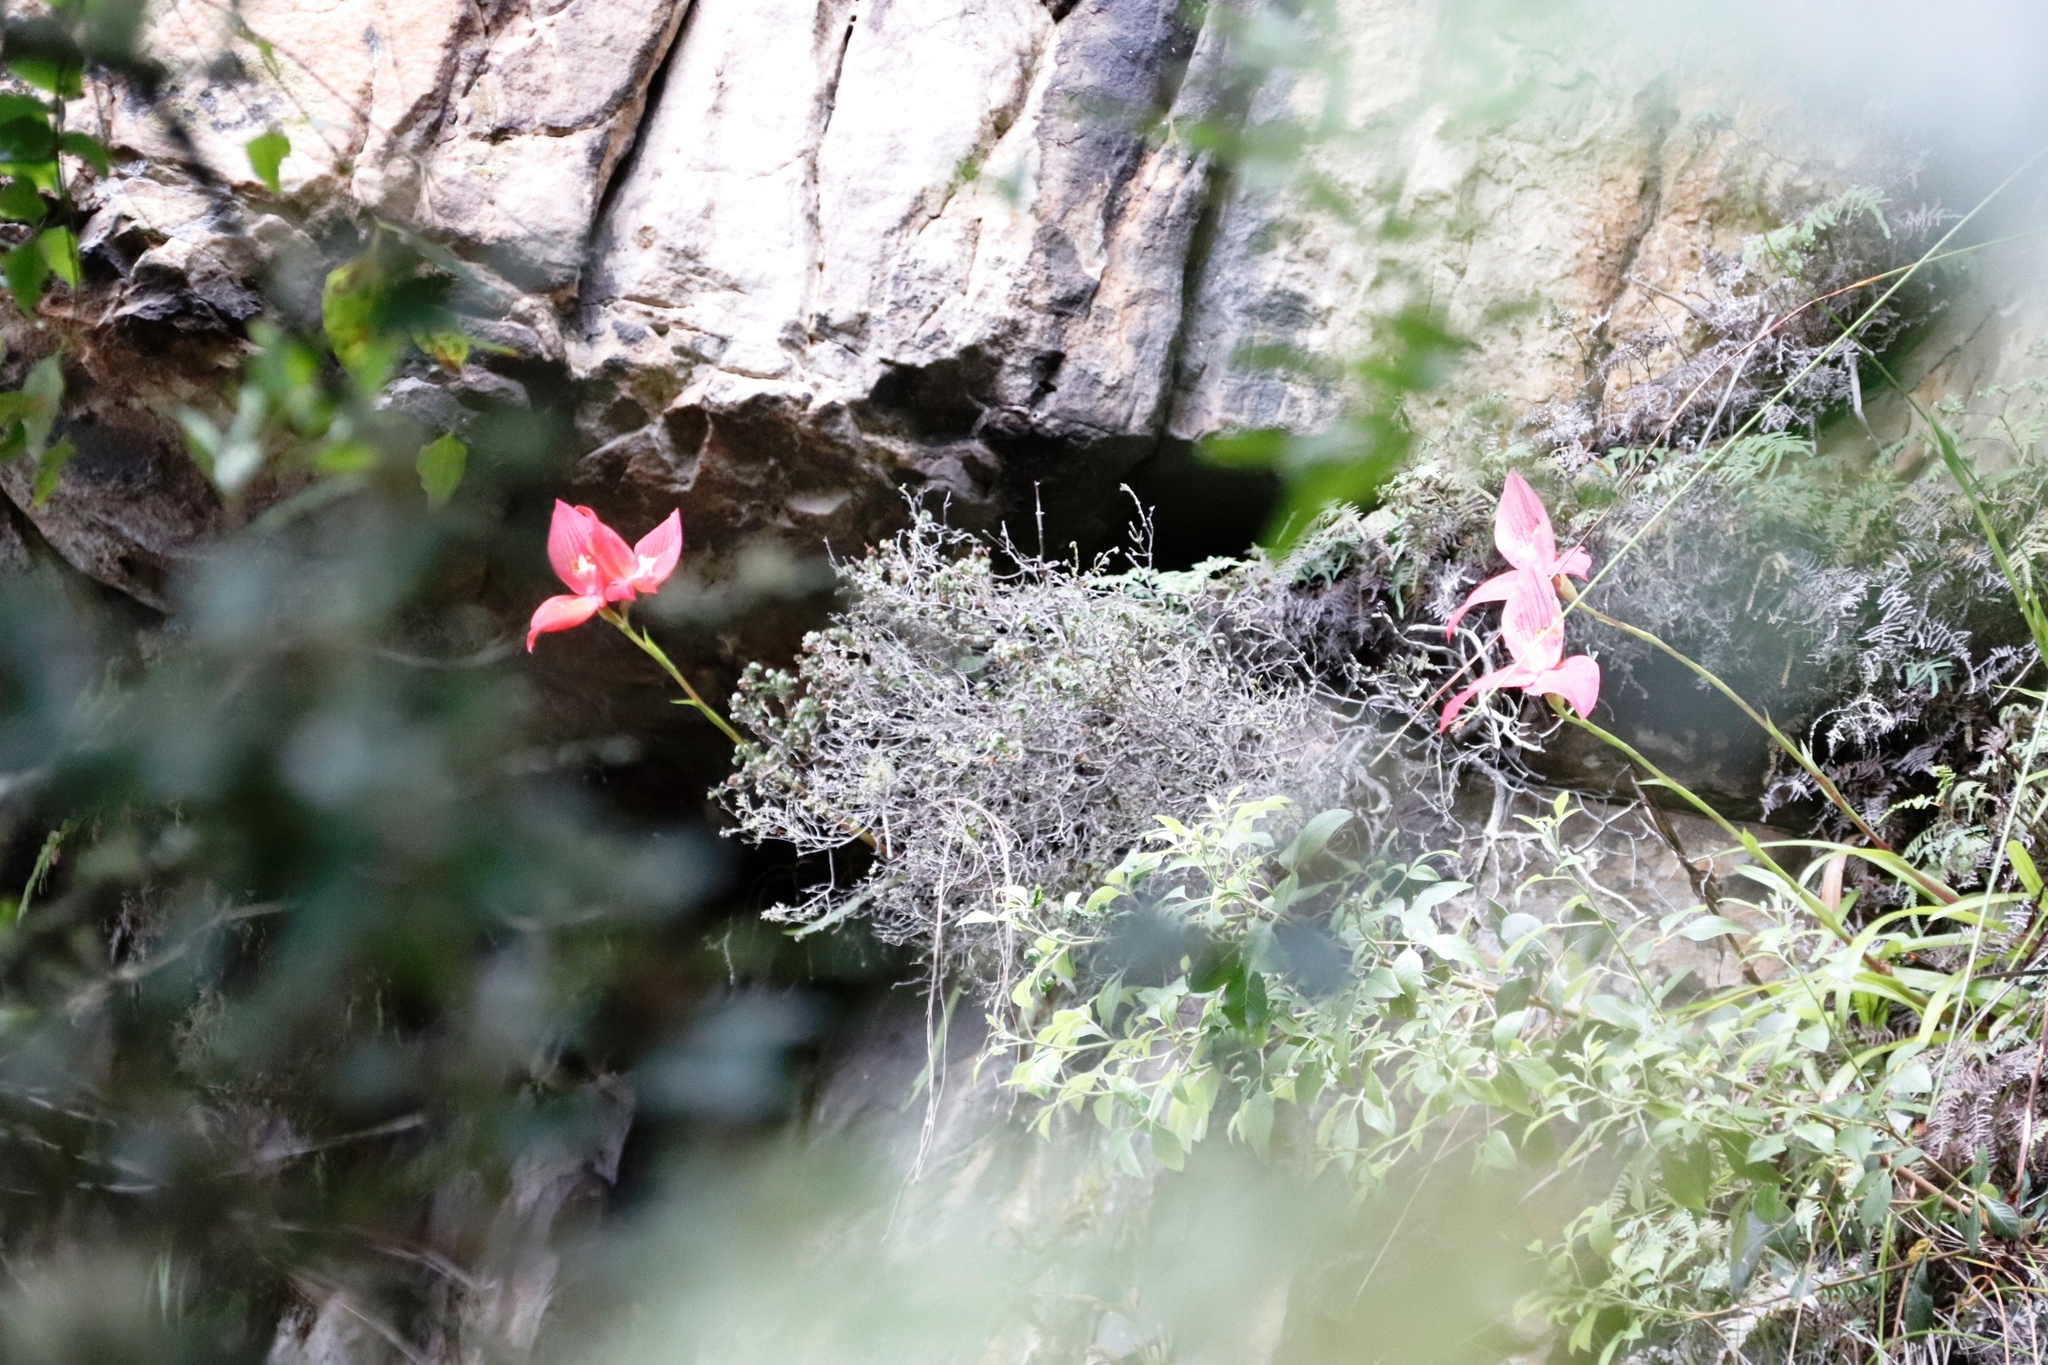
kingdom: Plantae
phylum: Tracheophyta
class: Liliopsida
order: Asparagales
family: Orchidaceae
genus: Disa
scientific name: Disa uniflora
